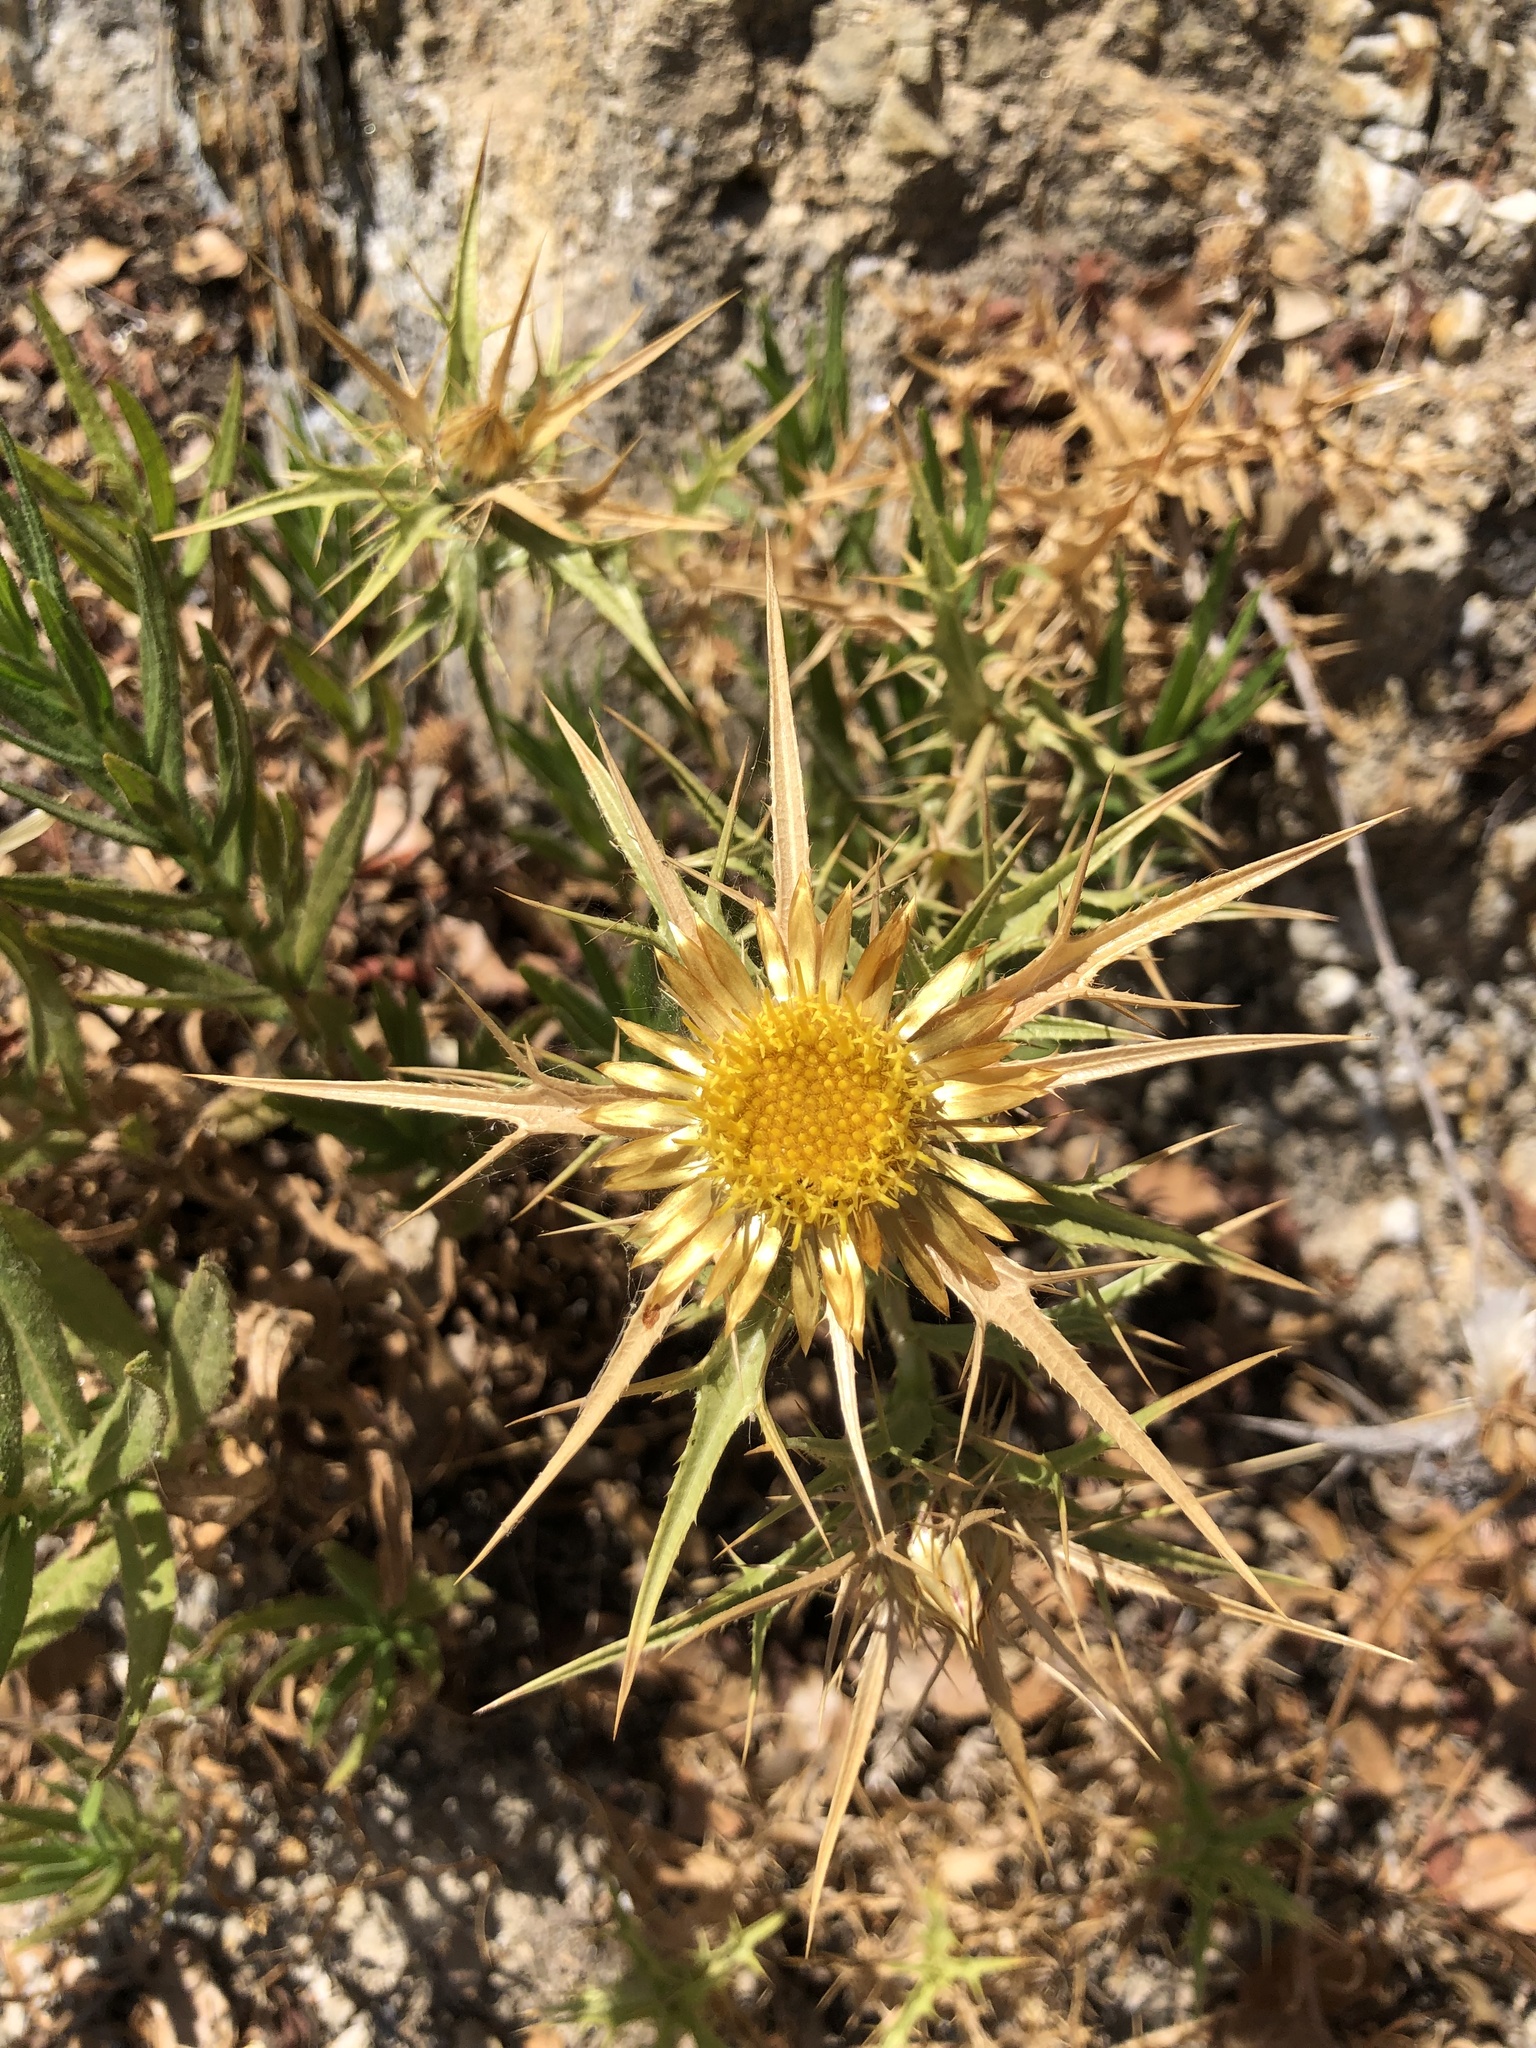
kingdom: Plantae
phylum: Tracheophyta
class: Magnoliopsida
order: Asterales
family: Asteraceae
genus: Carlina
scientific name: Carlina graeca
